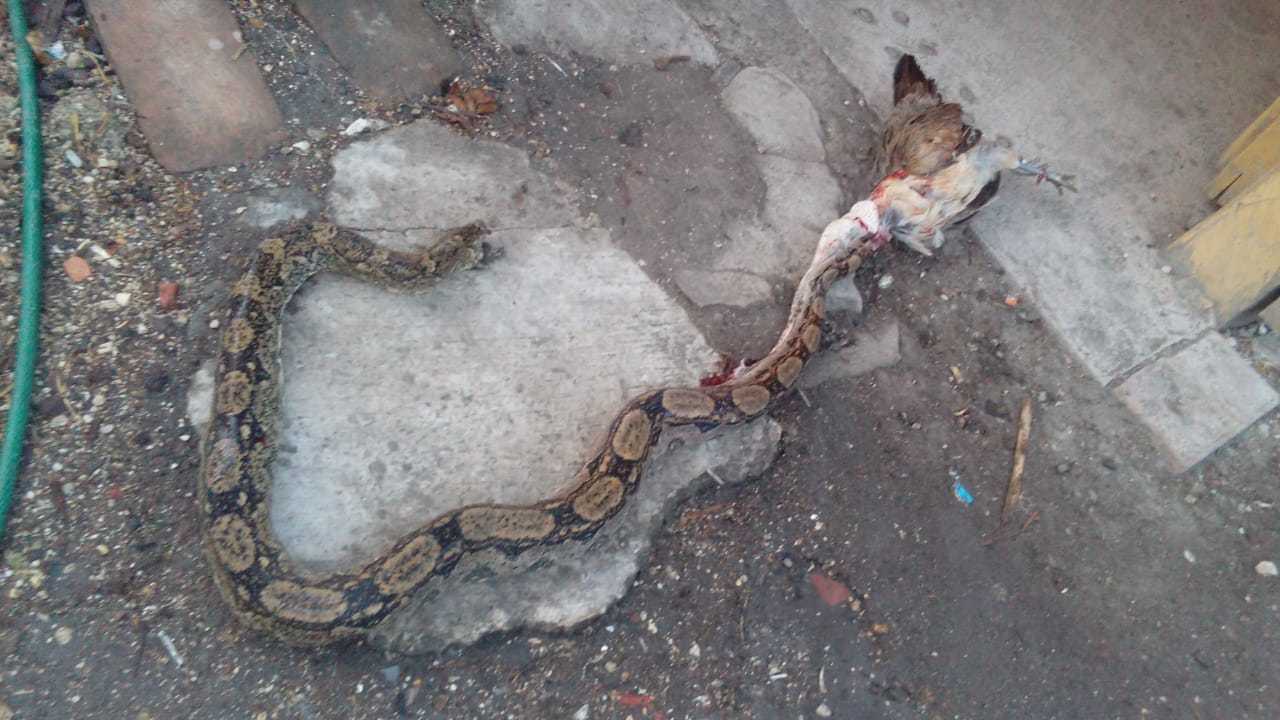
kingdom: Animalia
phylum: Chordata
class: Squamata
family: Boidae
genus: Boa
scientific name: Boa imperator
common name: Central american boa
